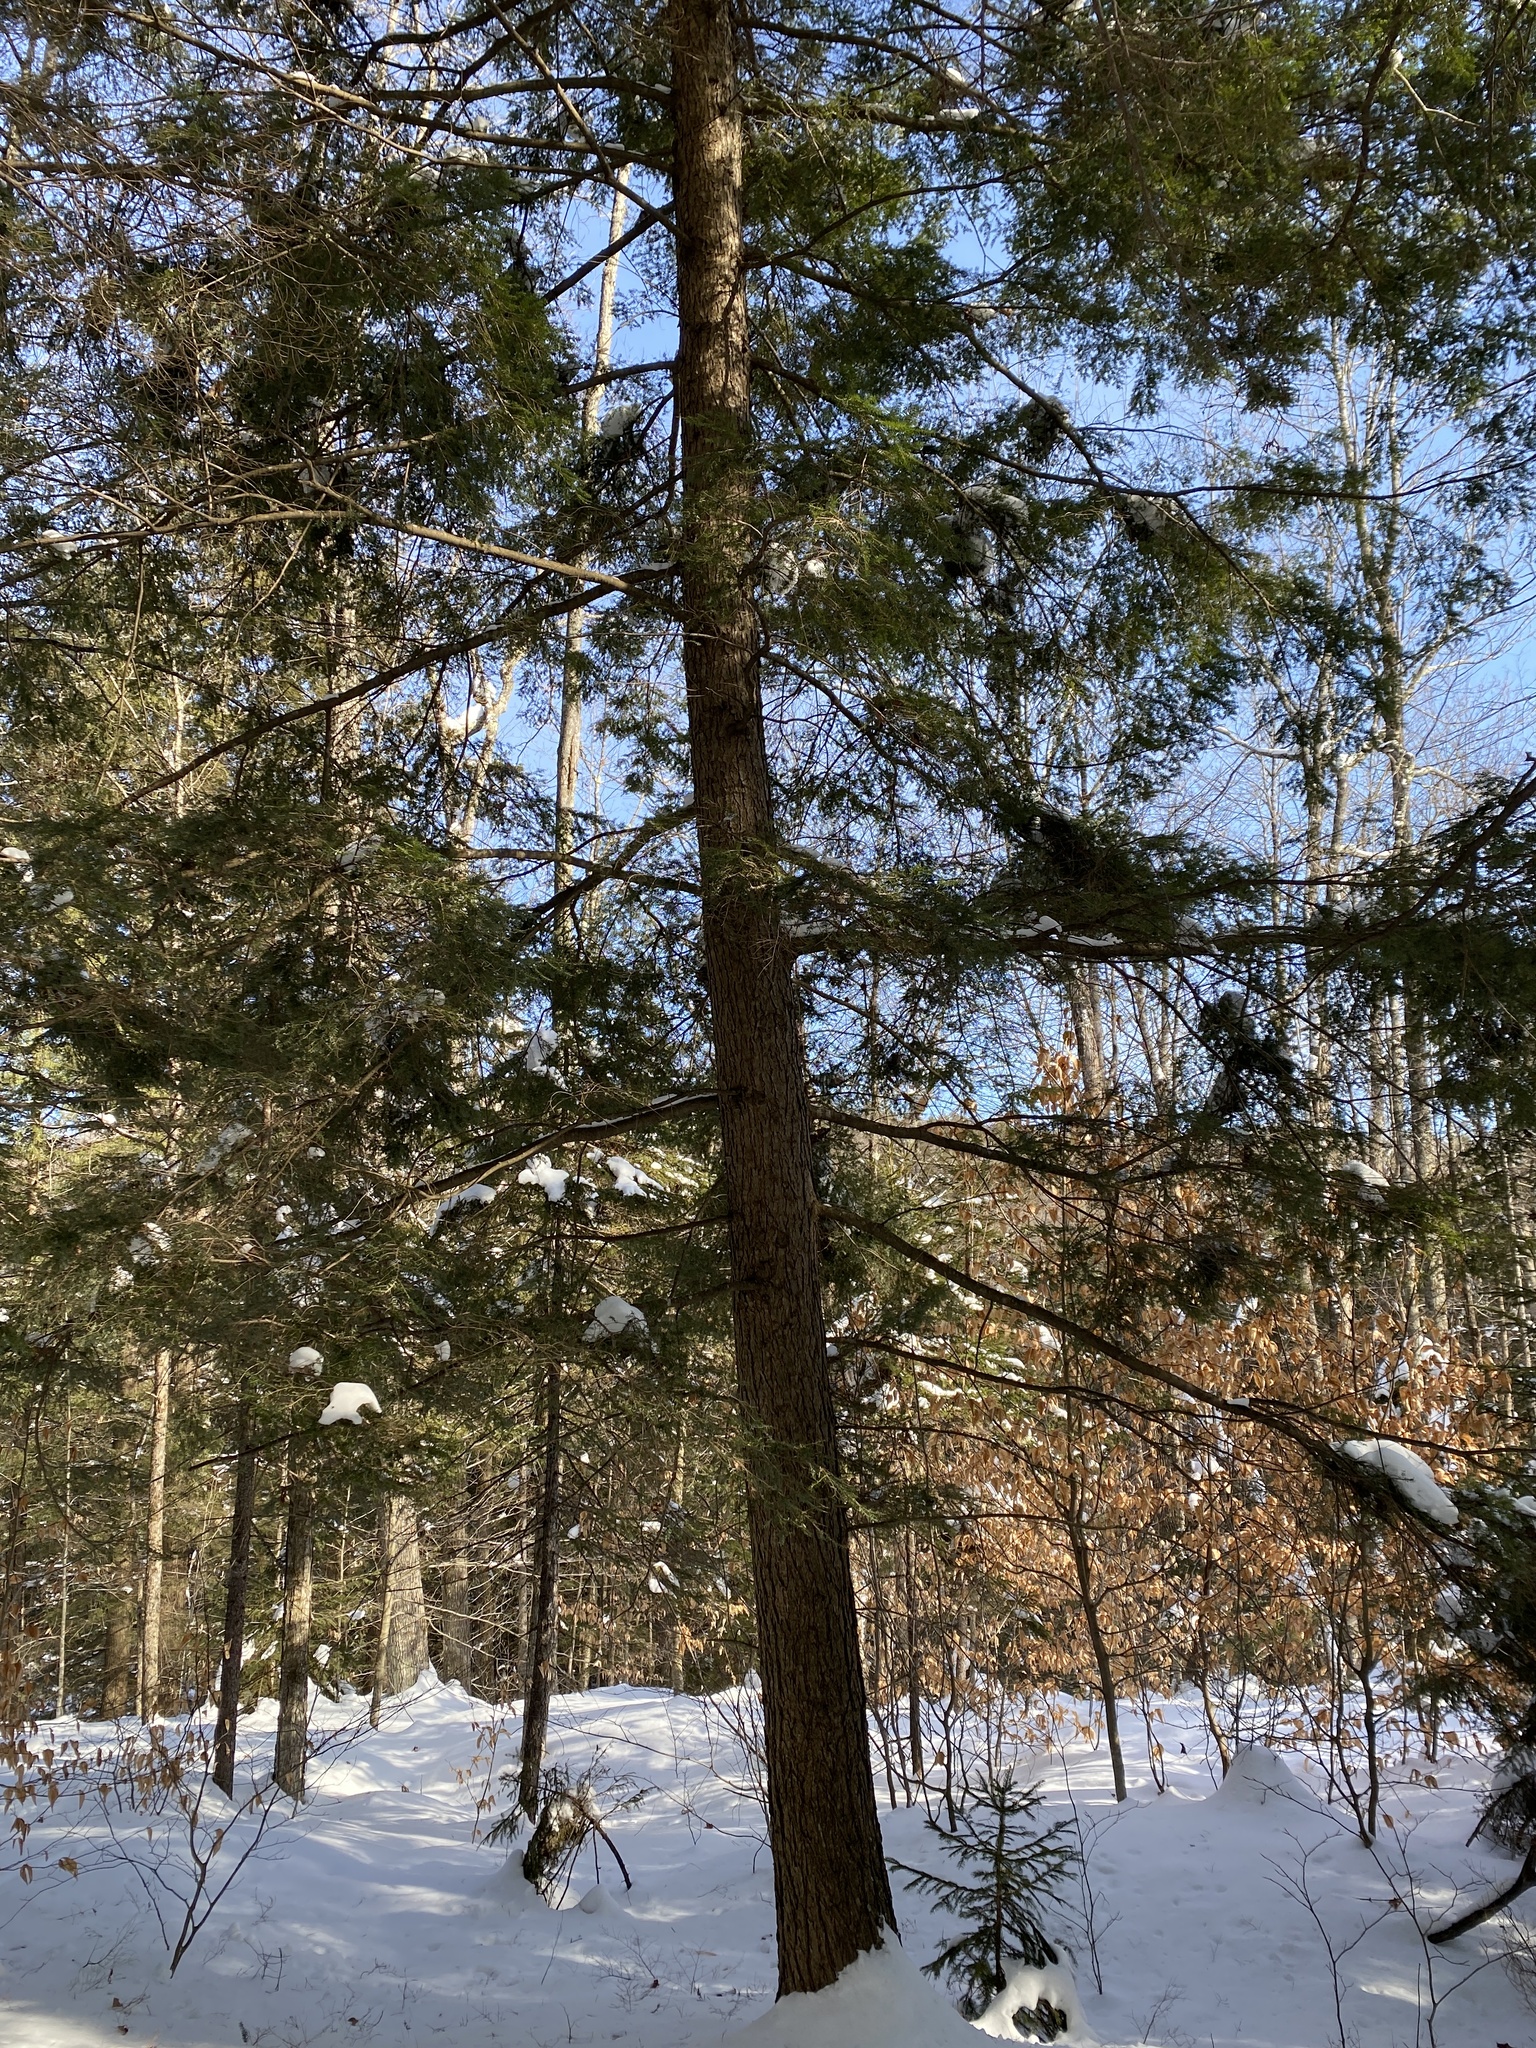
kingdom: Plantae
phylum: Tracheophyta
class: Pinopsida
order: Pinales
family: Pinaceae
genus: Tsuga
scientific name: Tsuga canadensis
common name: Eastern hemlock
